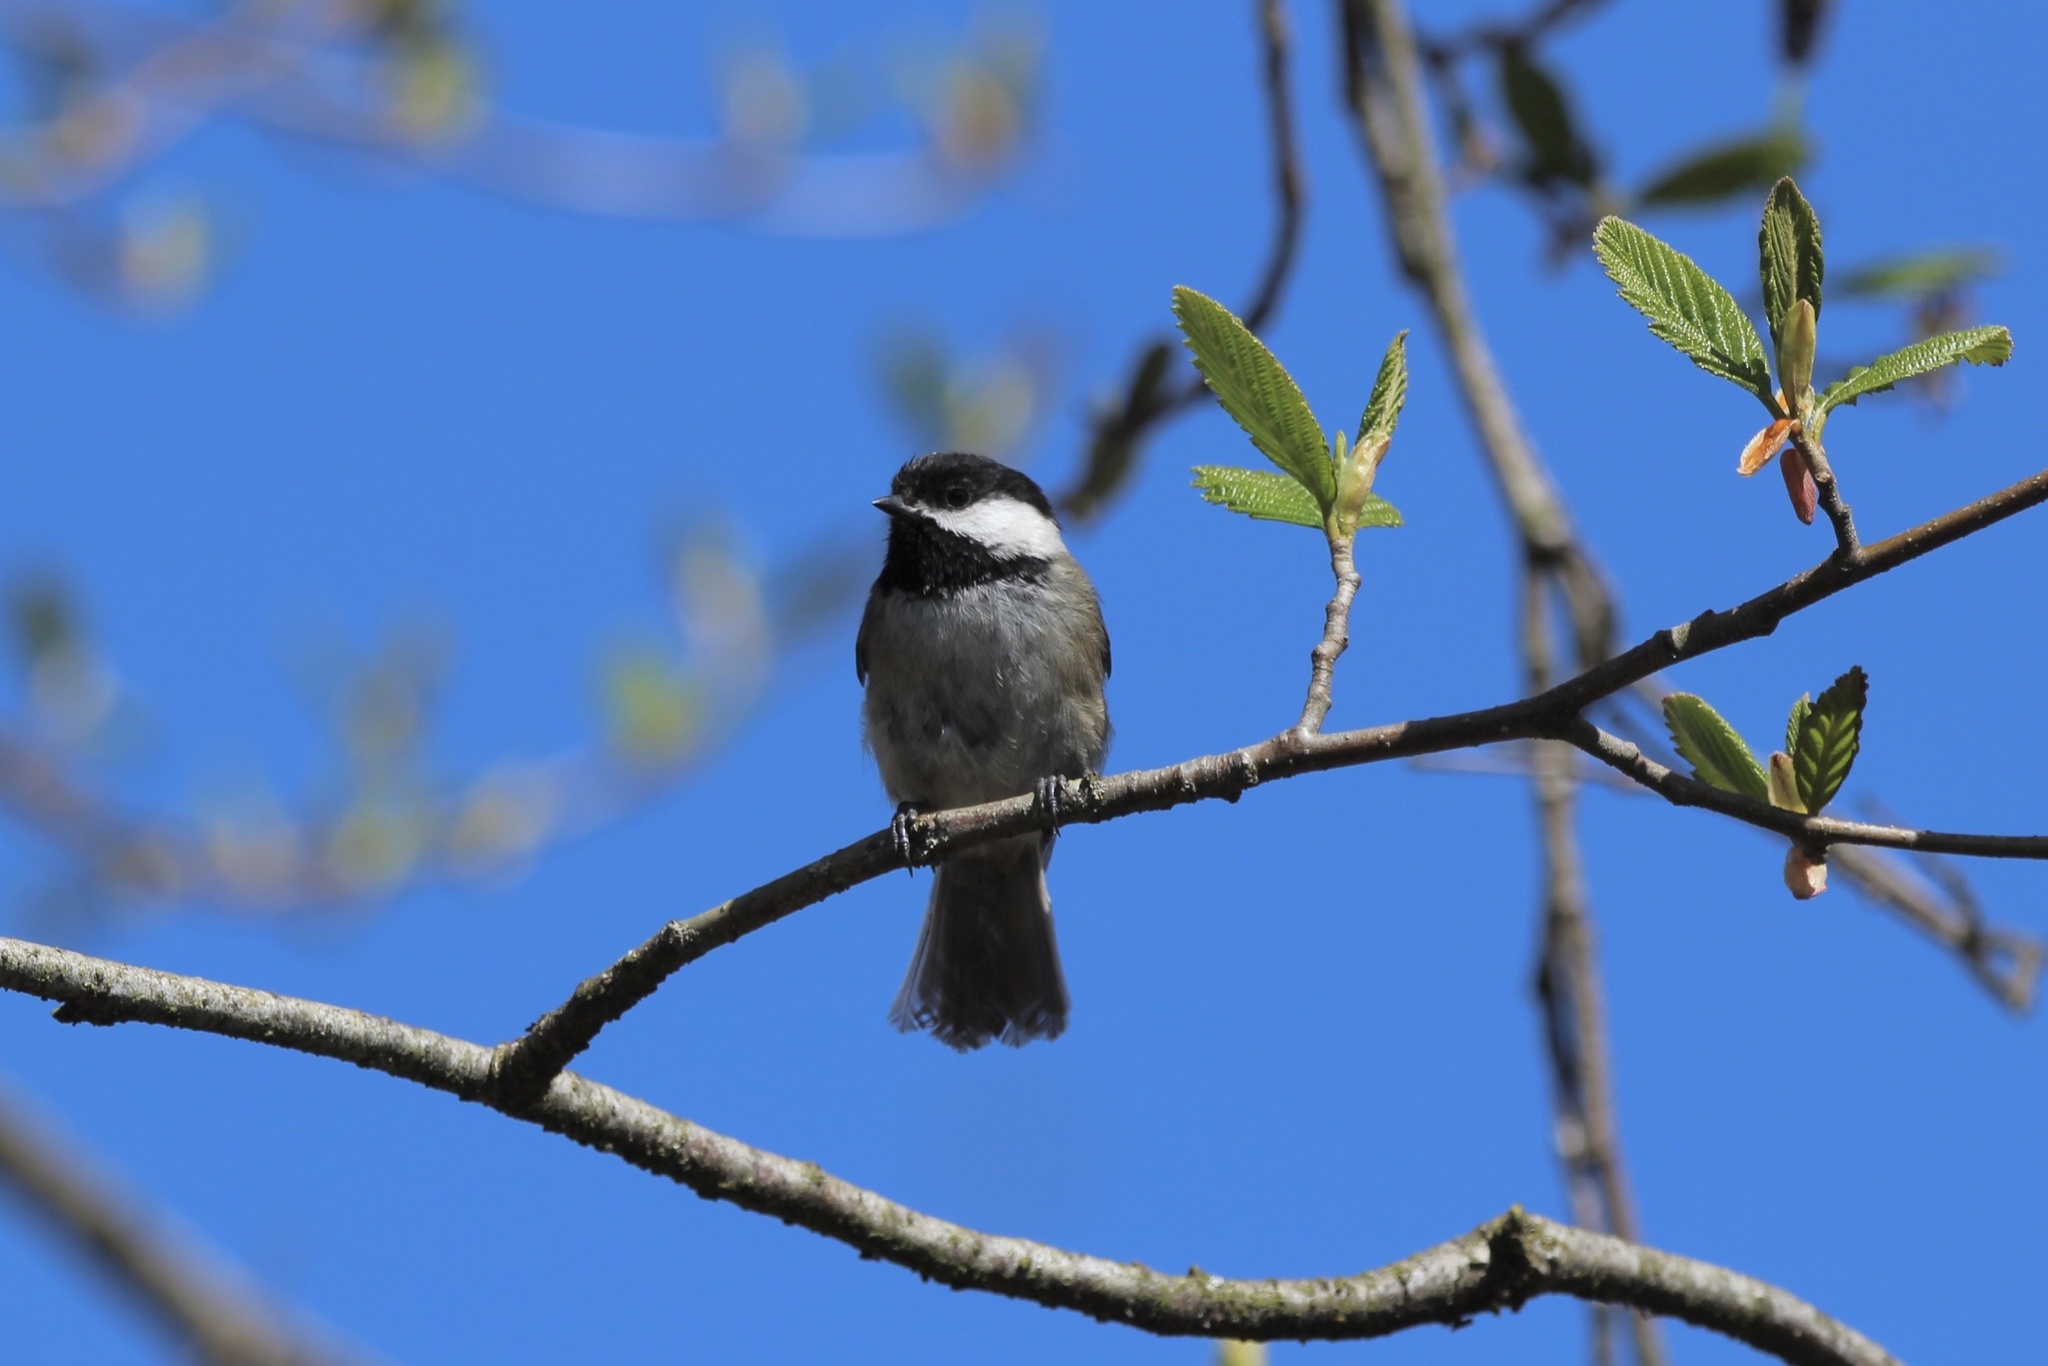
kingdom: Animalia
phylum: Chordata
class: Aves
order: Passeriformes
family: Paridae
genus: Poecile
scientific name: Poecile atricapillus
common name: Black-capped chickadee
